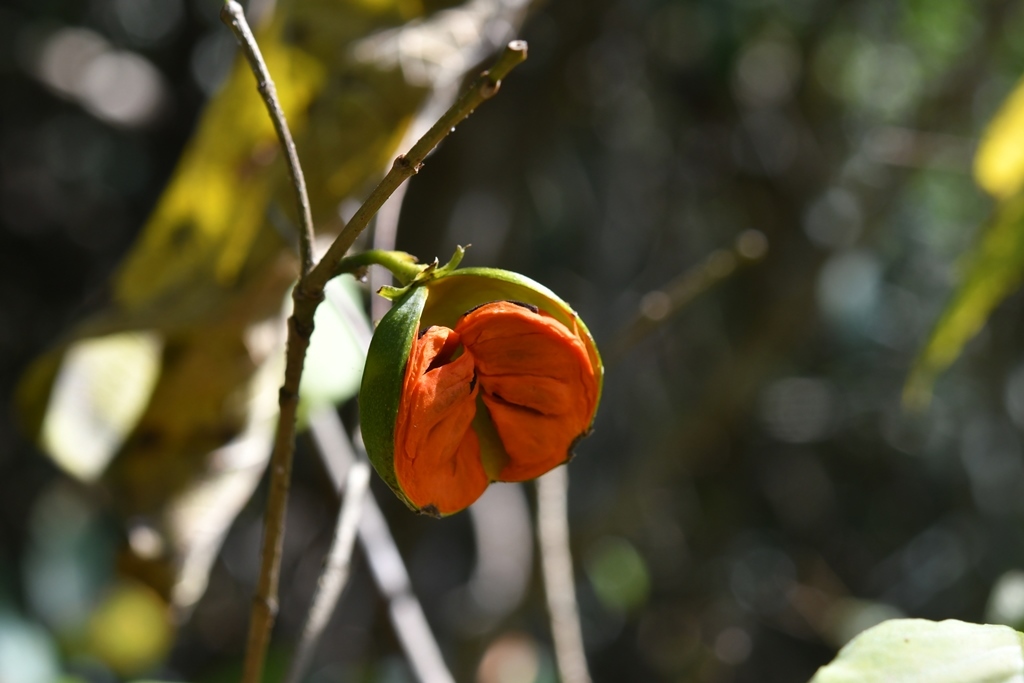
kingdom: Plantae
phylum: Tracheophyta
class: Magnoliopsida
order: Gentianales
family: Apocynaceae
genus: Tabernaemontana
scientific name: Tabernaemontana hannae
